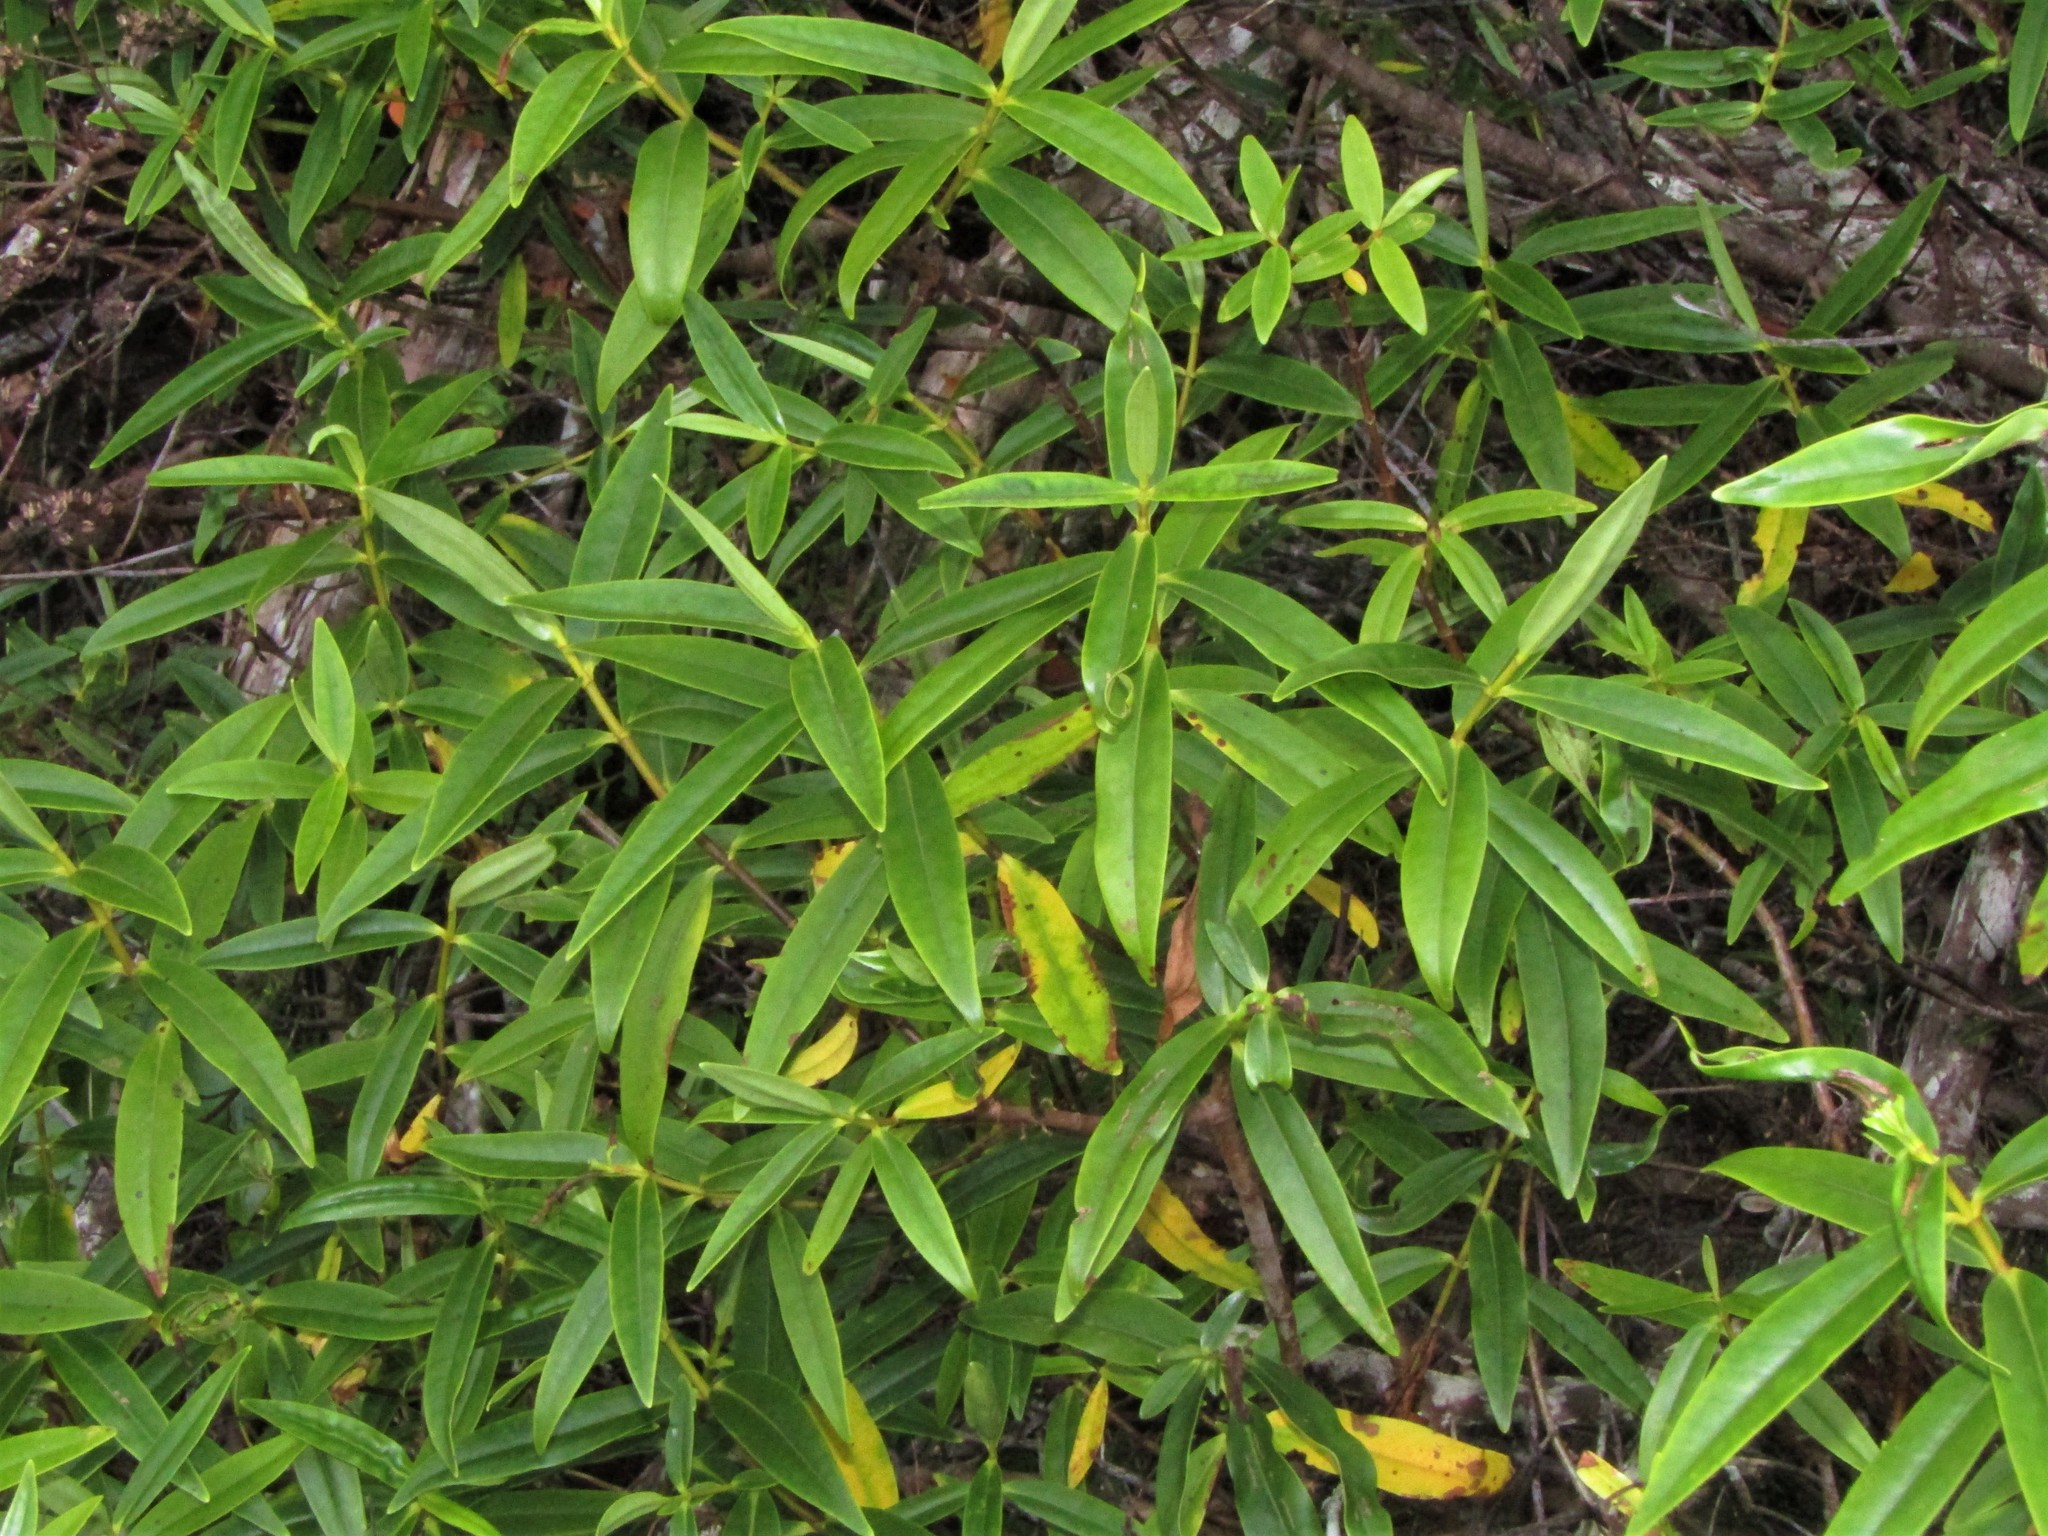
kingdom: Plantae
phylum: Tracheophyta
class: Magnoliopsida
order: Lamiales
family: Plantaginaceae
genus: Veronica
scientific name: Veronica stricta
